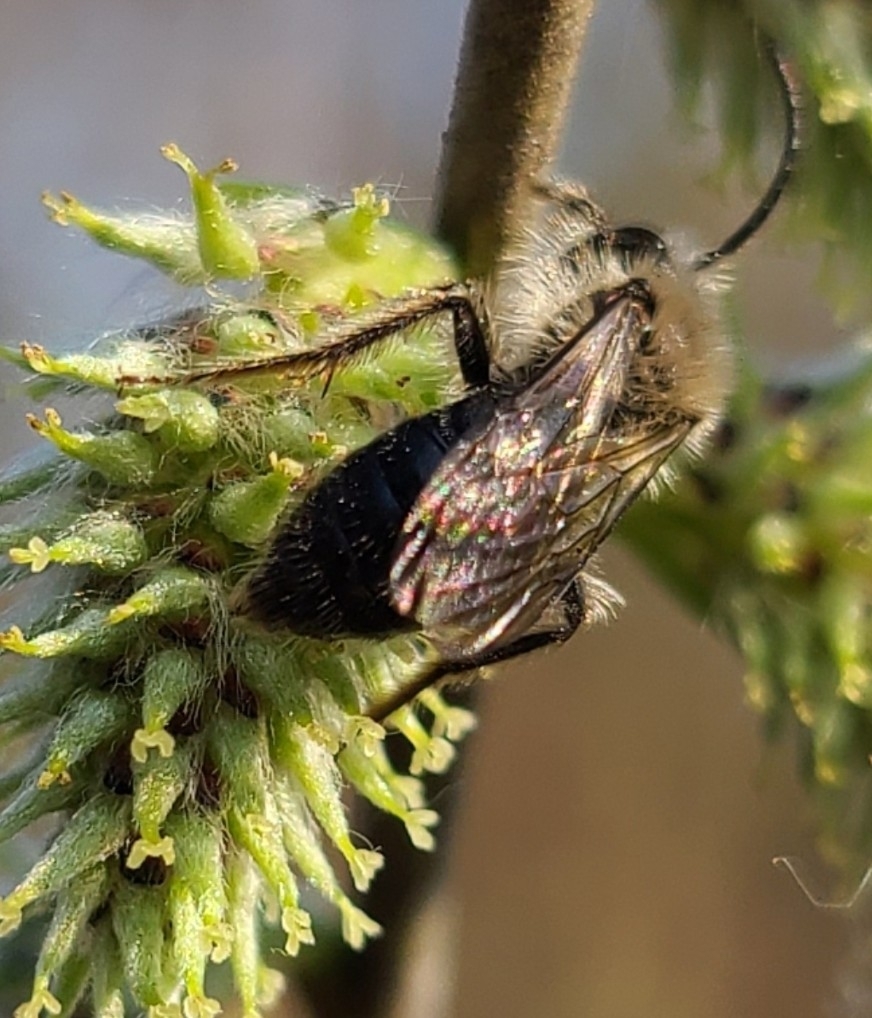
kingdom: Animalia
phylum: Arthropoda
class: Insecta
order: Hymenoptera
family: Andrenidae
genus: Andrena
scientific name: Andrena
